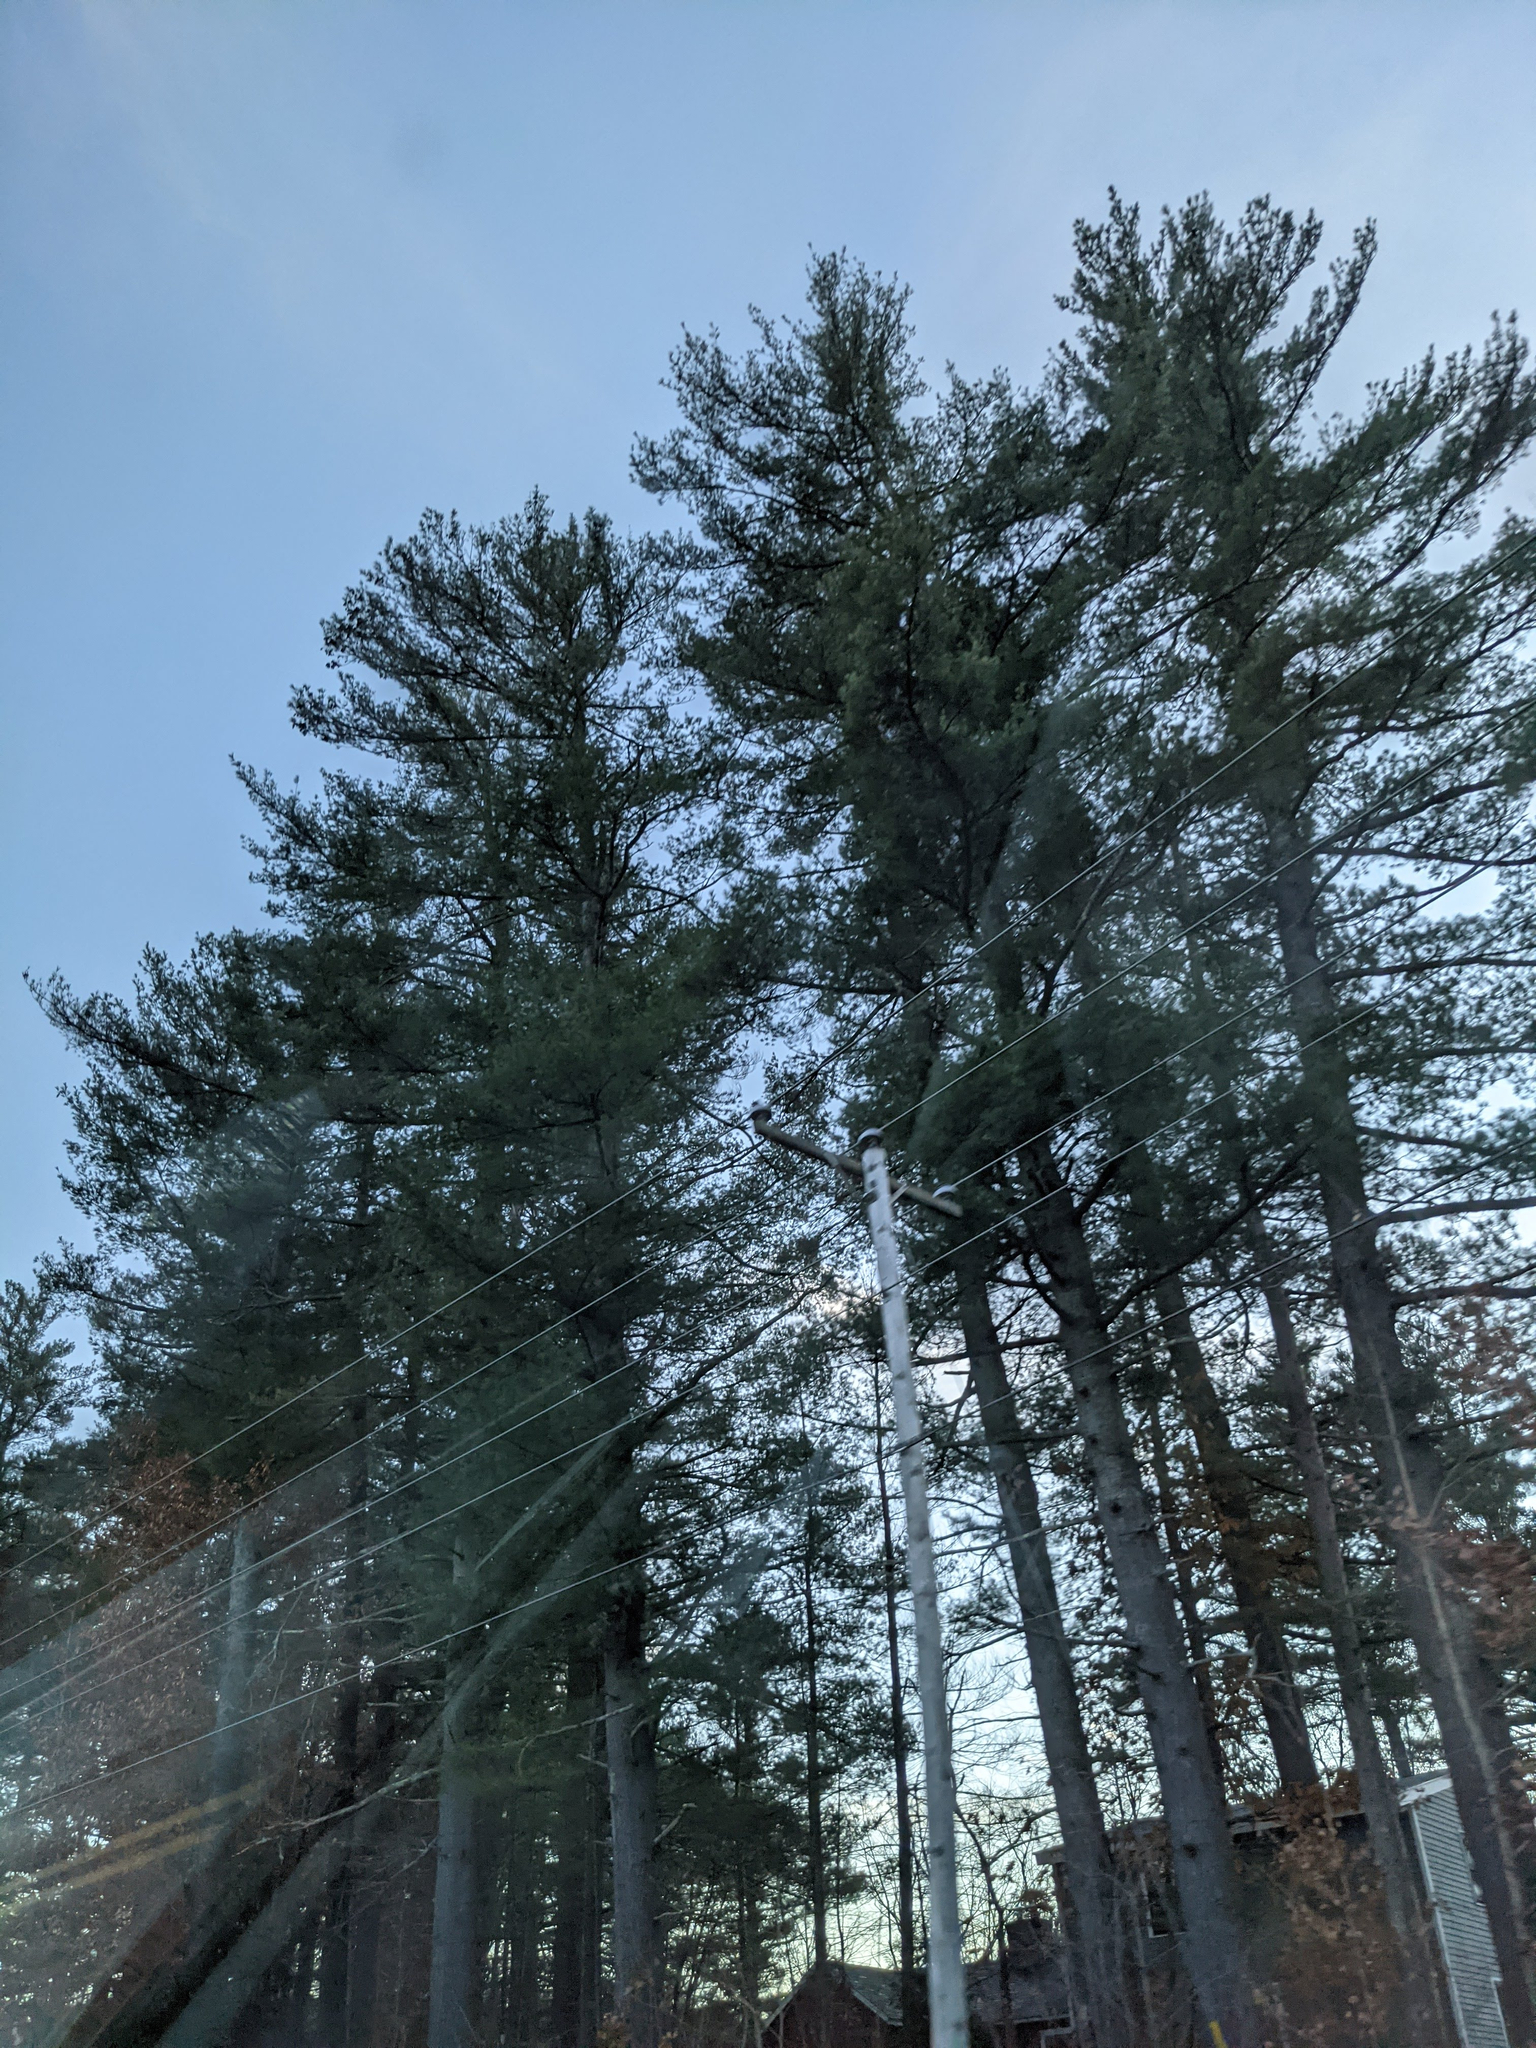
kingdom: Plantae
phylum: Tracheophyta
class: Pinopsida
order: Pinales
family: Pinaceae
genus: Pinus
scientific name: Pinus strobus
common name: Weymouth pine
